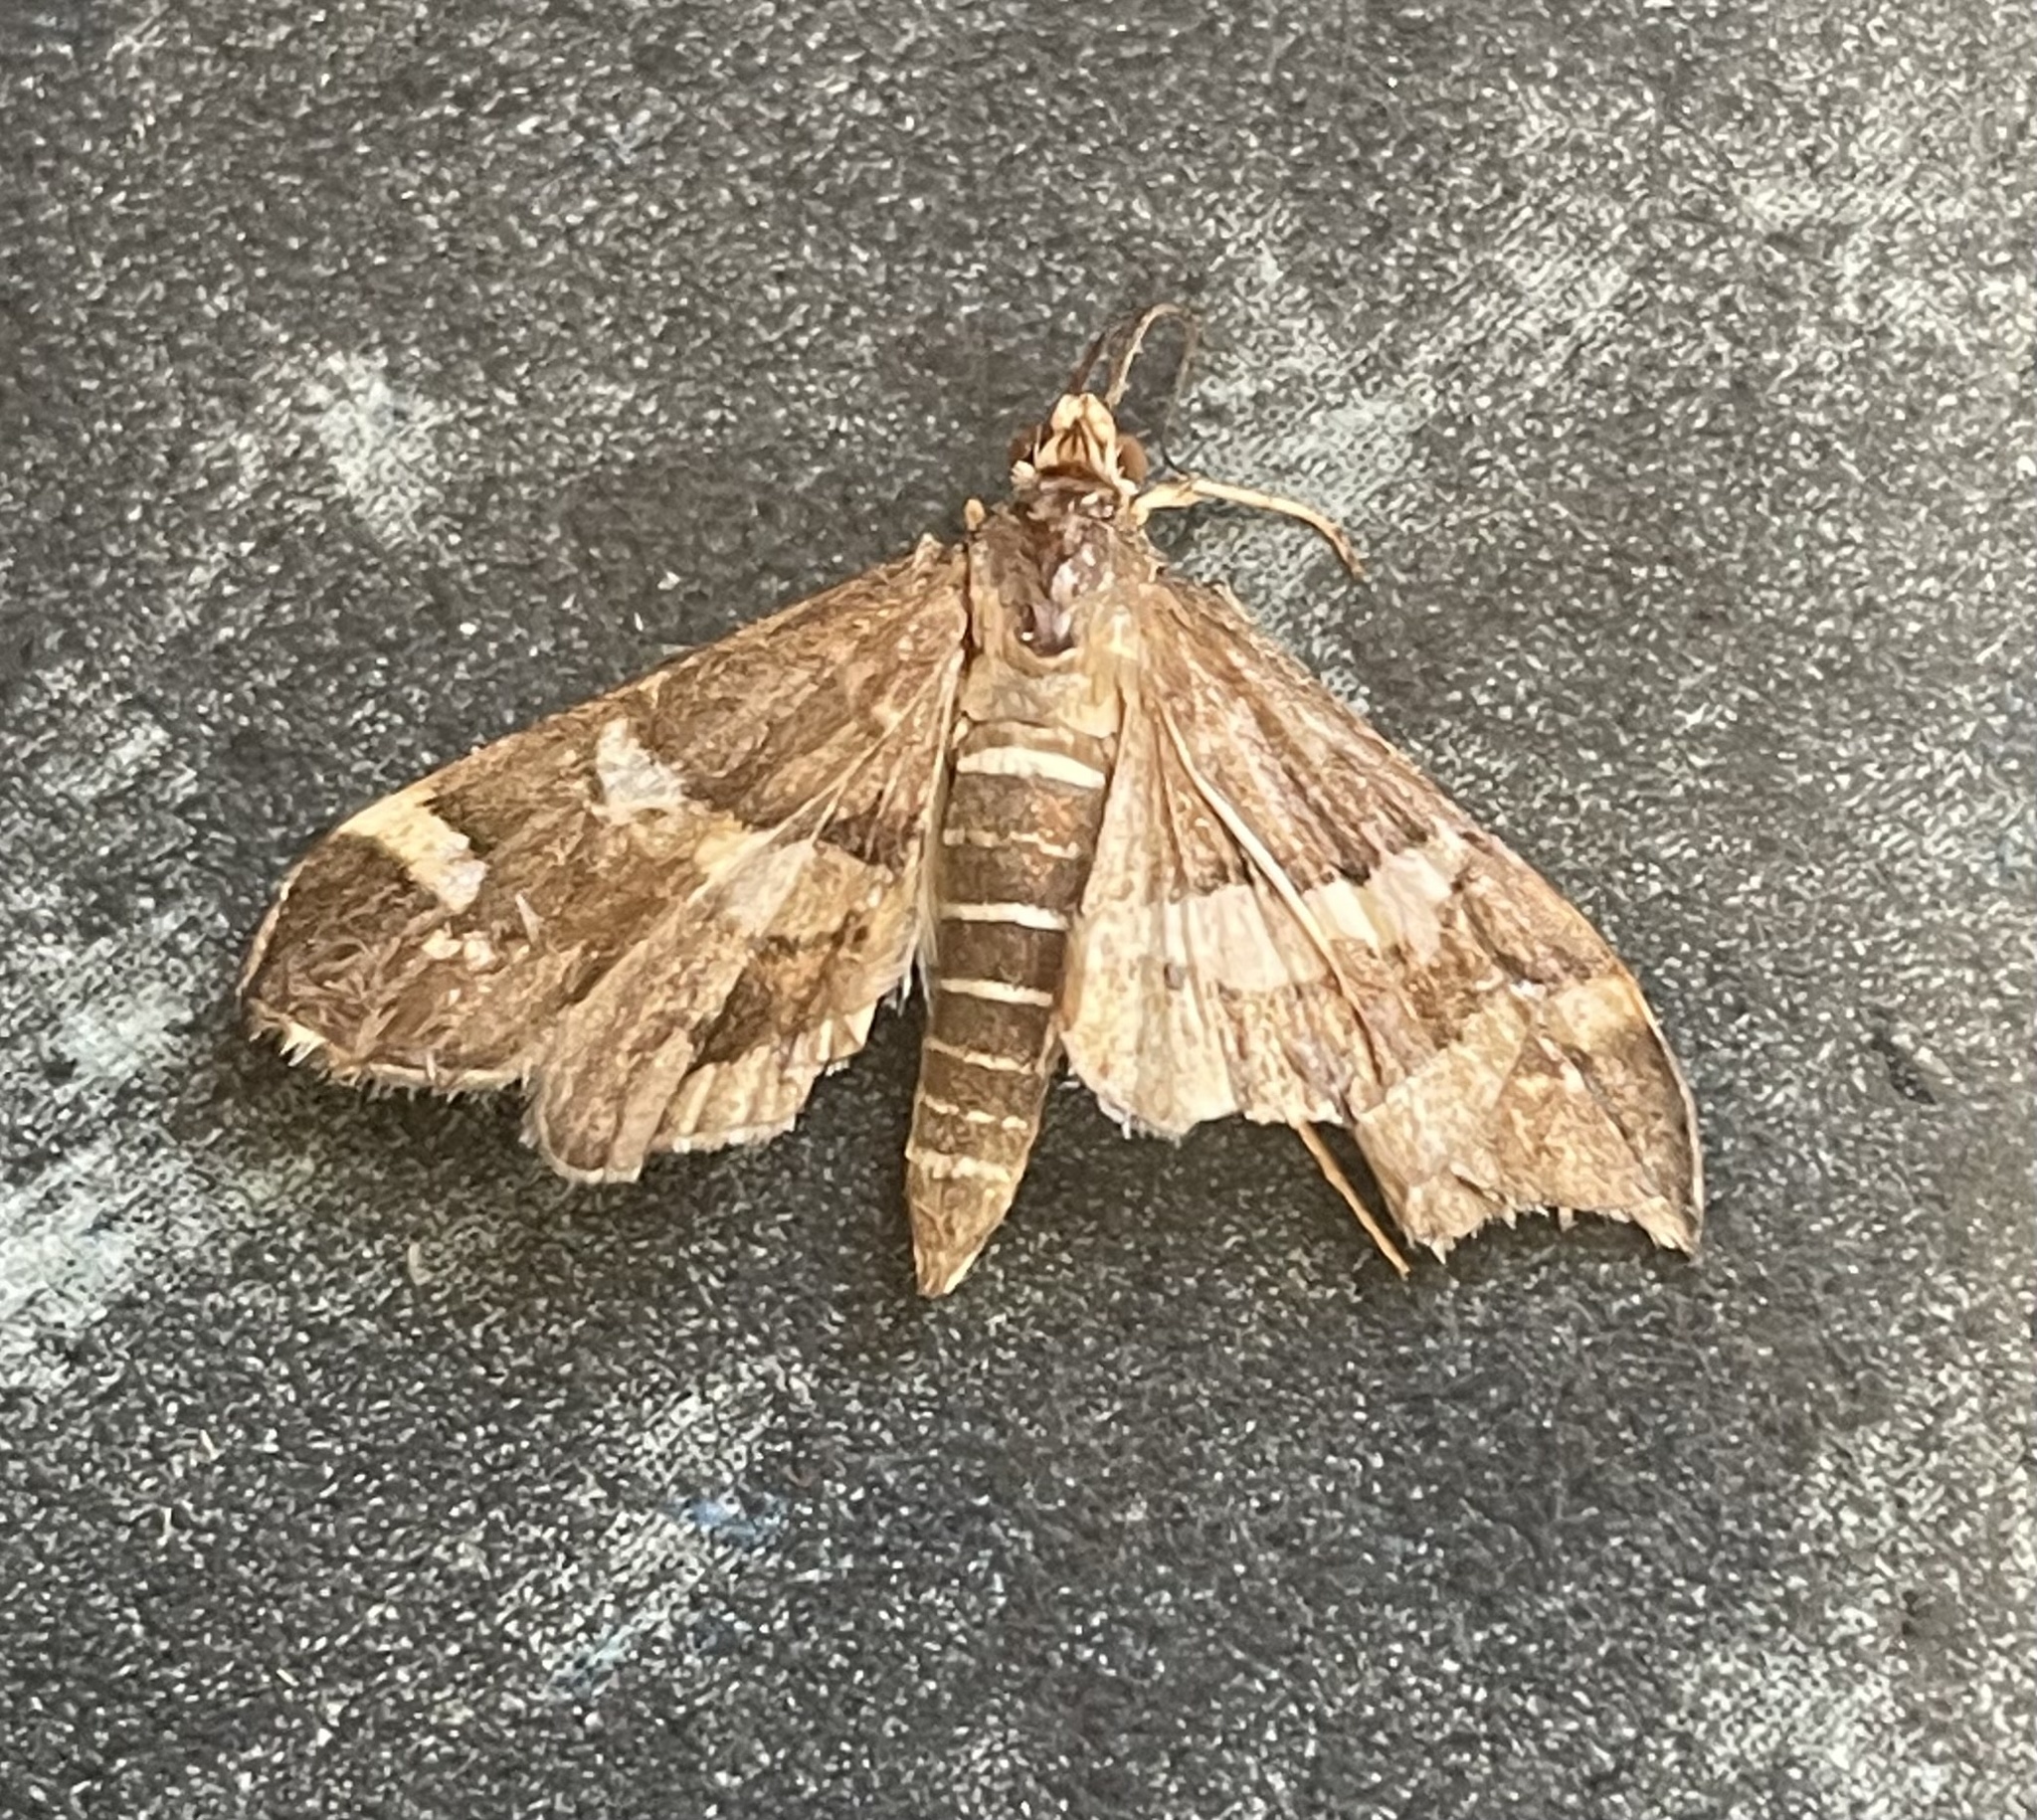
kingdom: Animalia
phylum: Arthropoda
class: Insecta
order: Lepidoptera
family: Crambidae
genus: Spoladea
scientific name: Spoladea recurvalis
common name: Beet webworm moth
